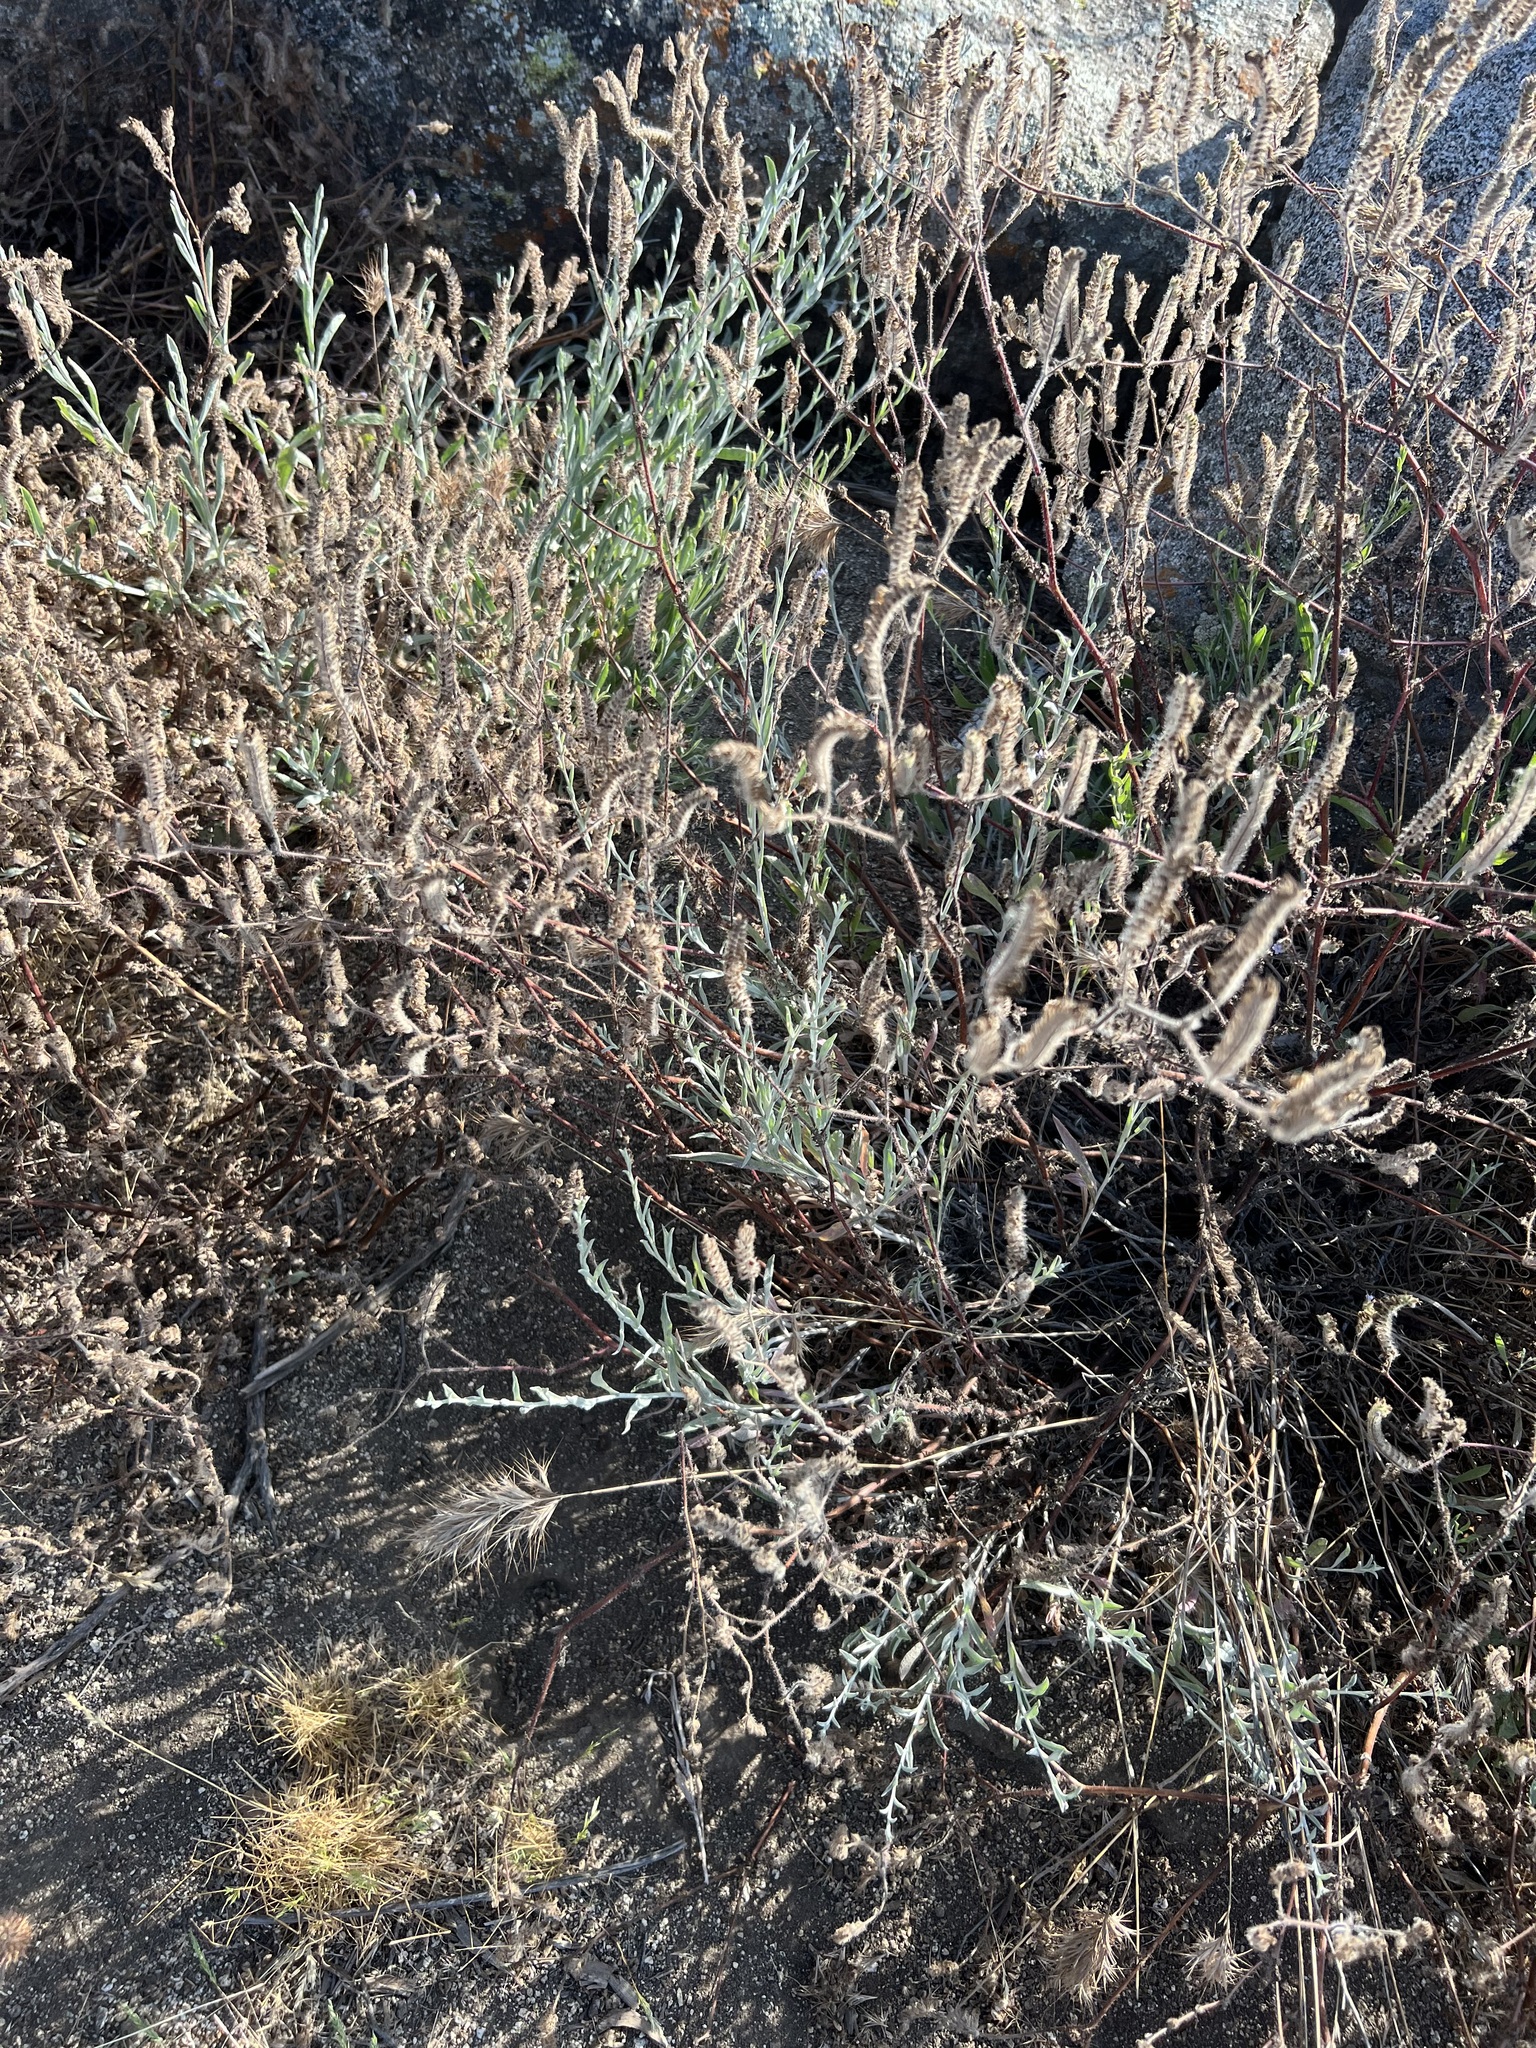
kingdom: Plantae
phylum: Tracheophyta
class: Magnoliopsida
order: Asterales
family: Asteraceae
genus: Corethrogyne
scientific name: Corethrogyne filaginifolia
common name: Sand-aster
